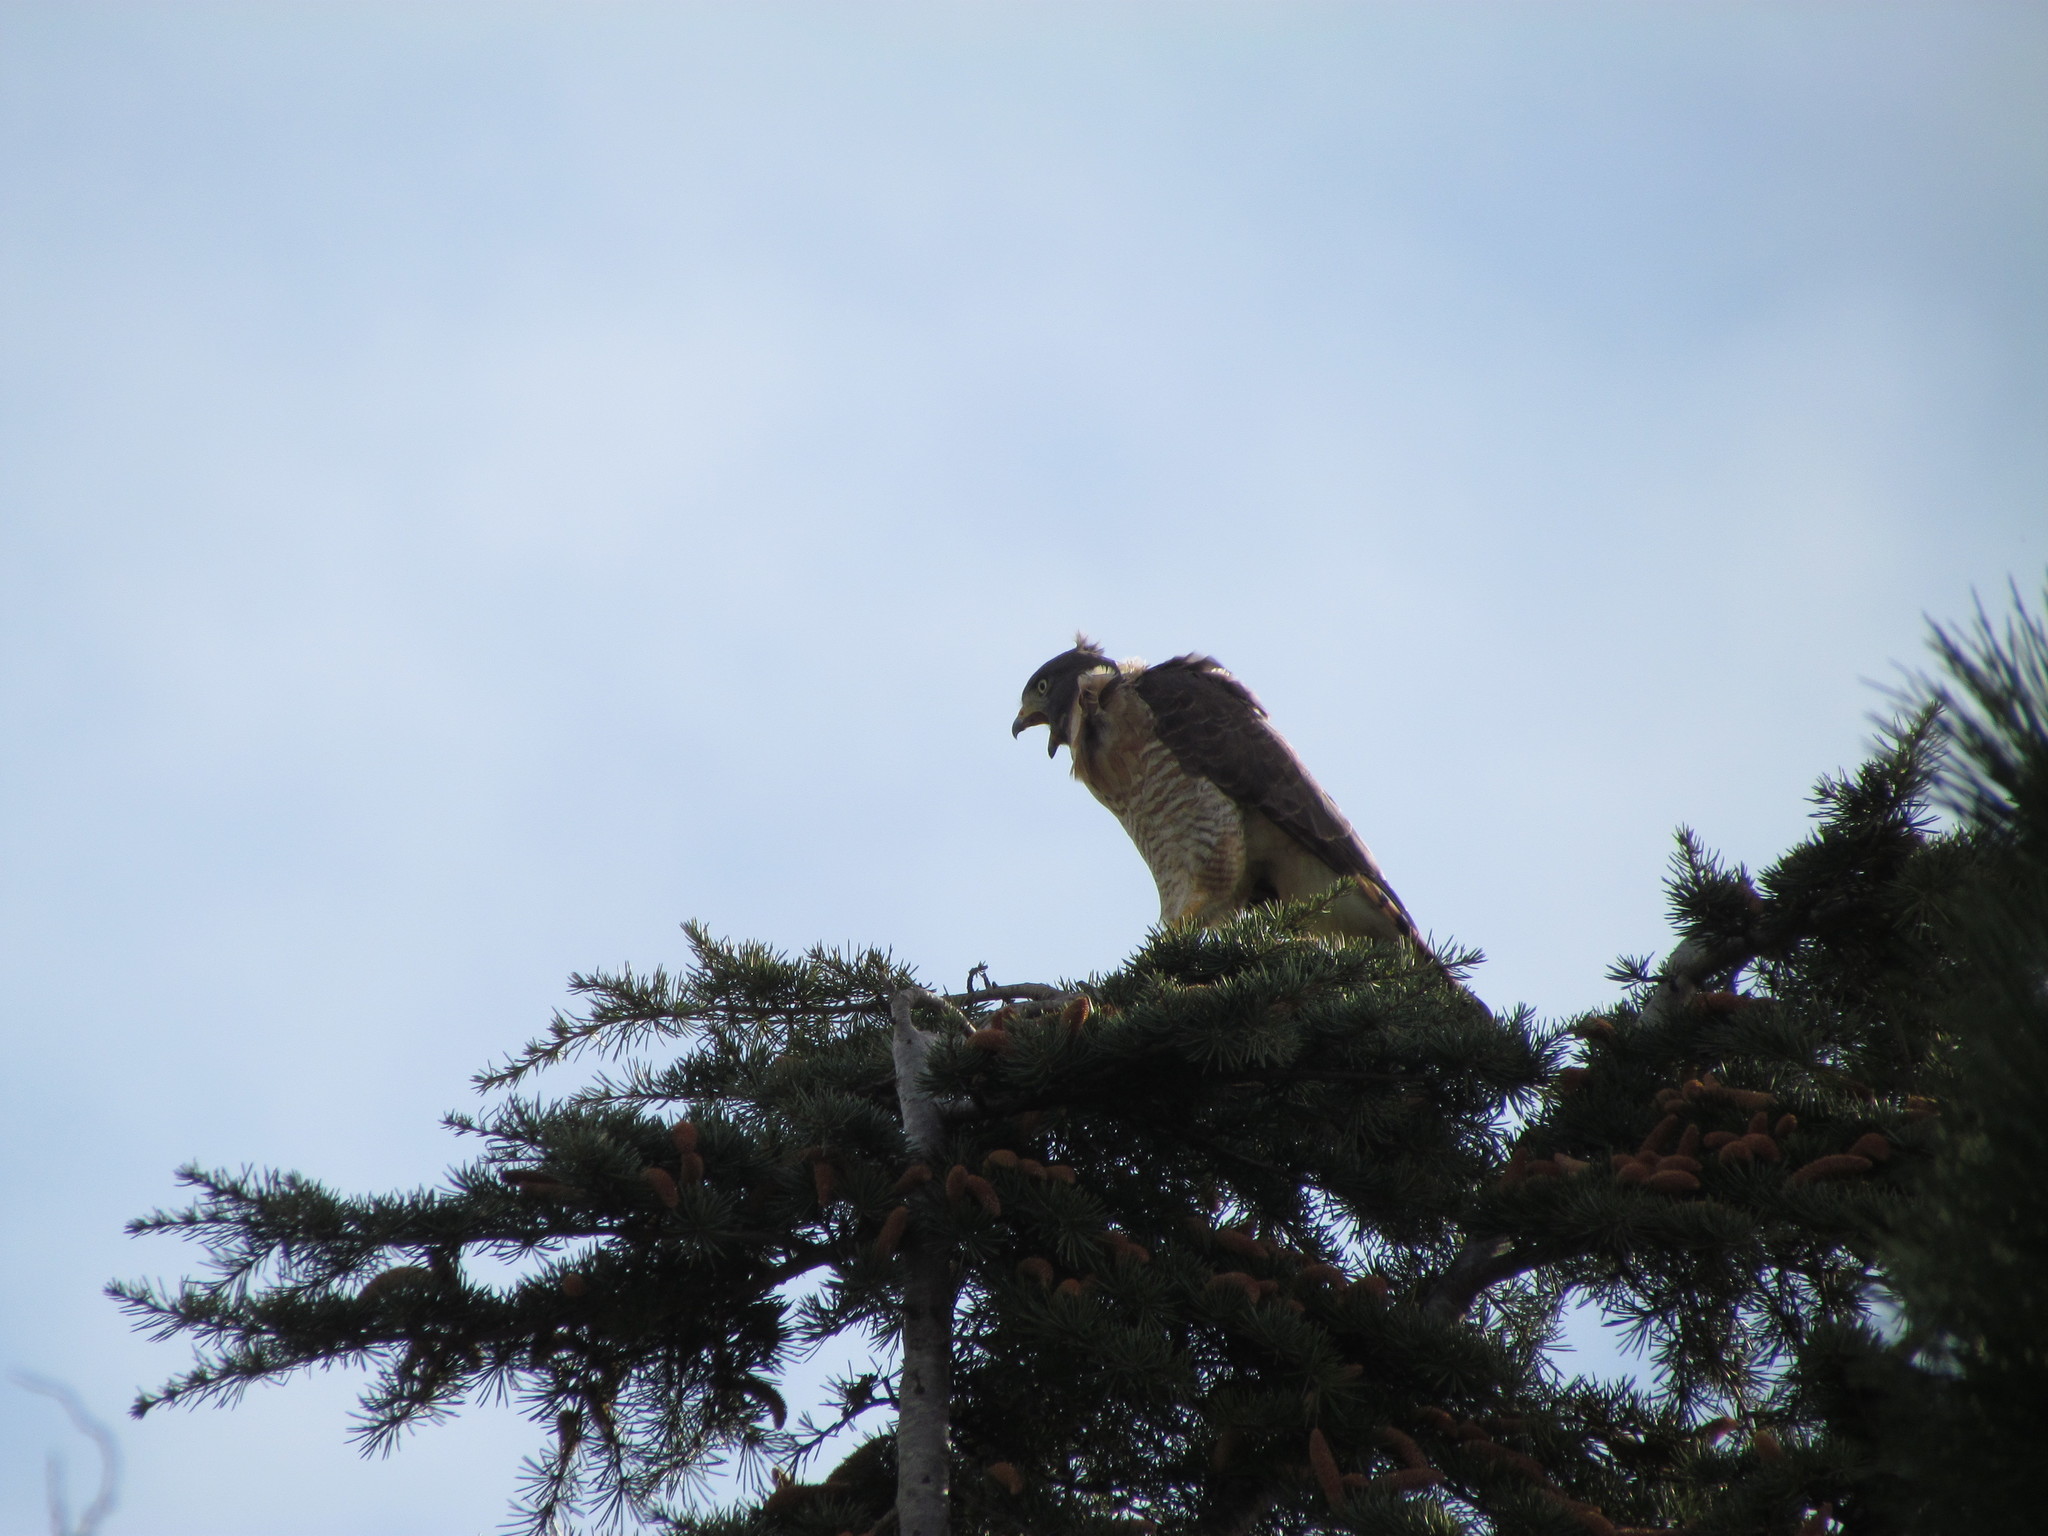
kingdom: Animalia
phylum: Chordata
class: Aves
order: Accipitriformes
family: Accipitridae
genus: Rupornis
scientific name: Rupornis magnirostris
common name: Roadside hawk
